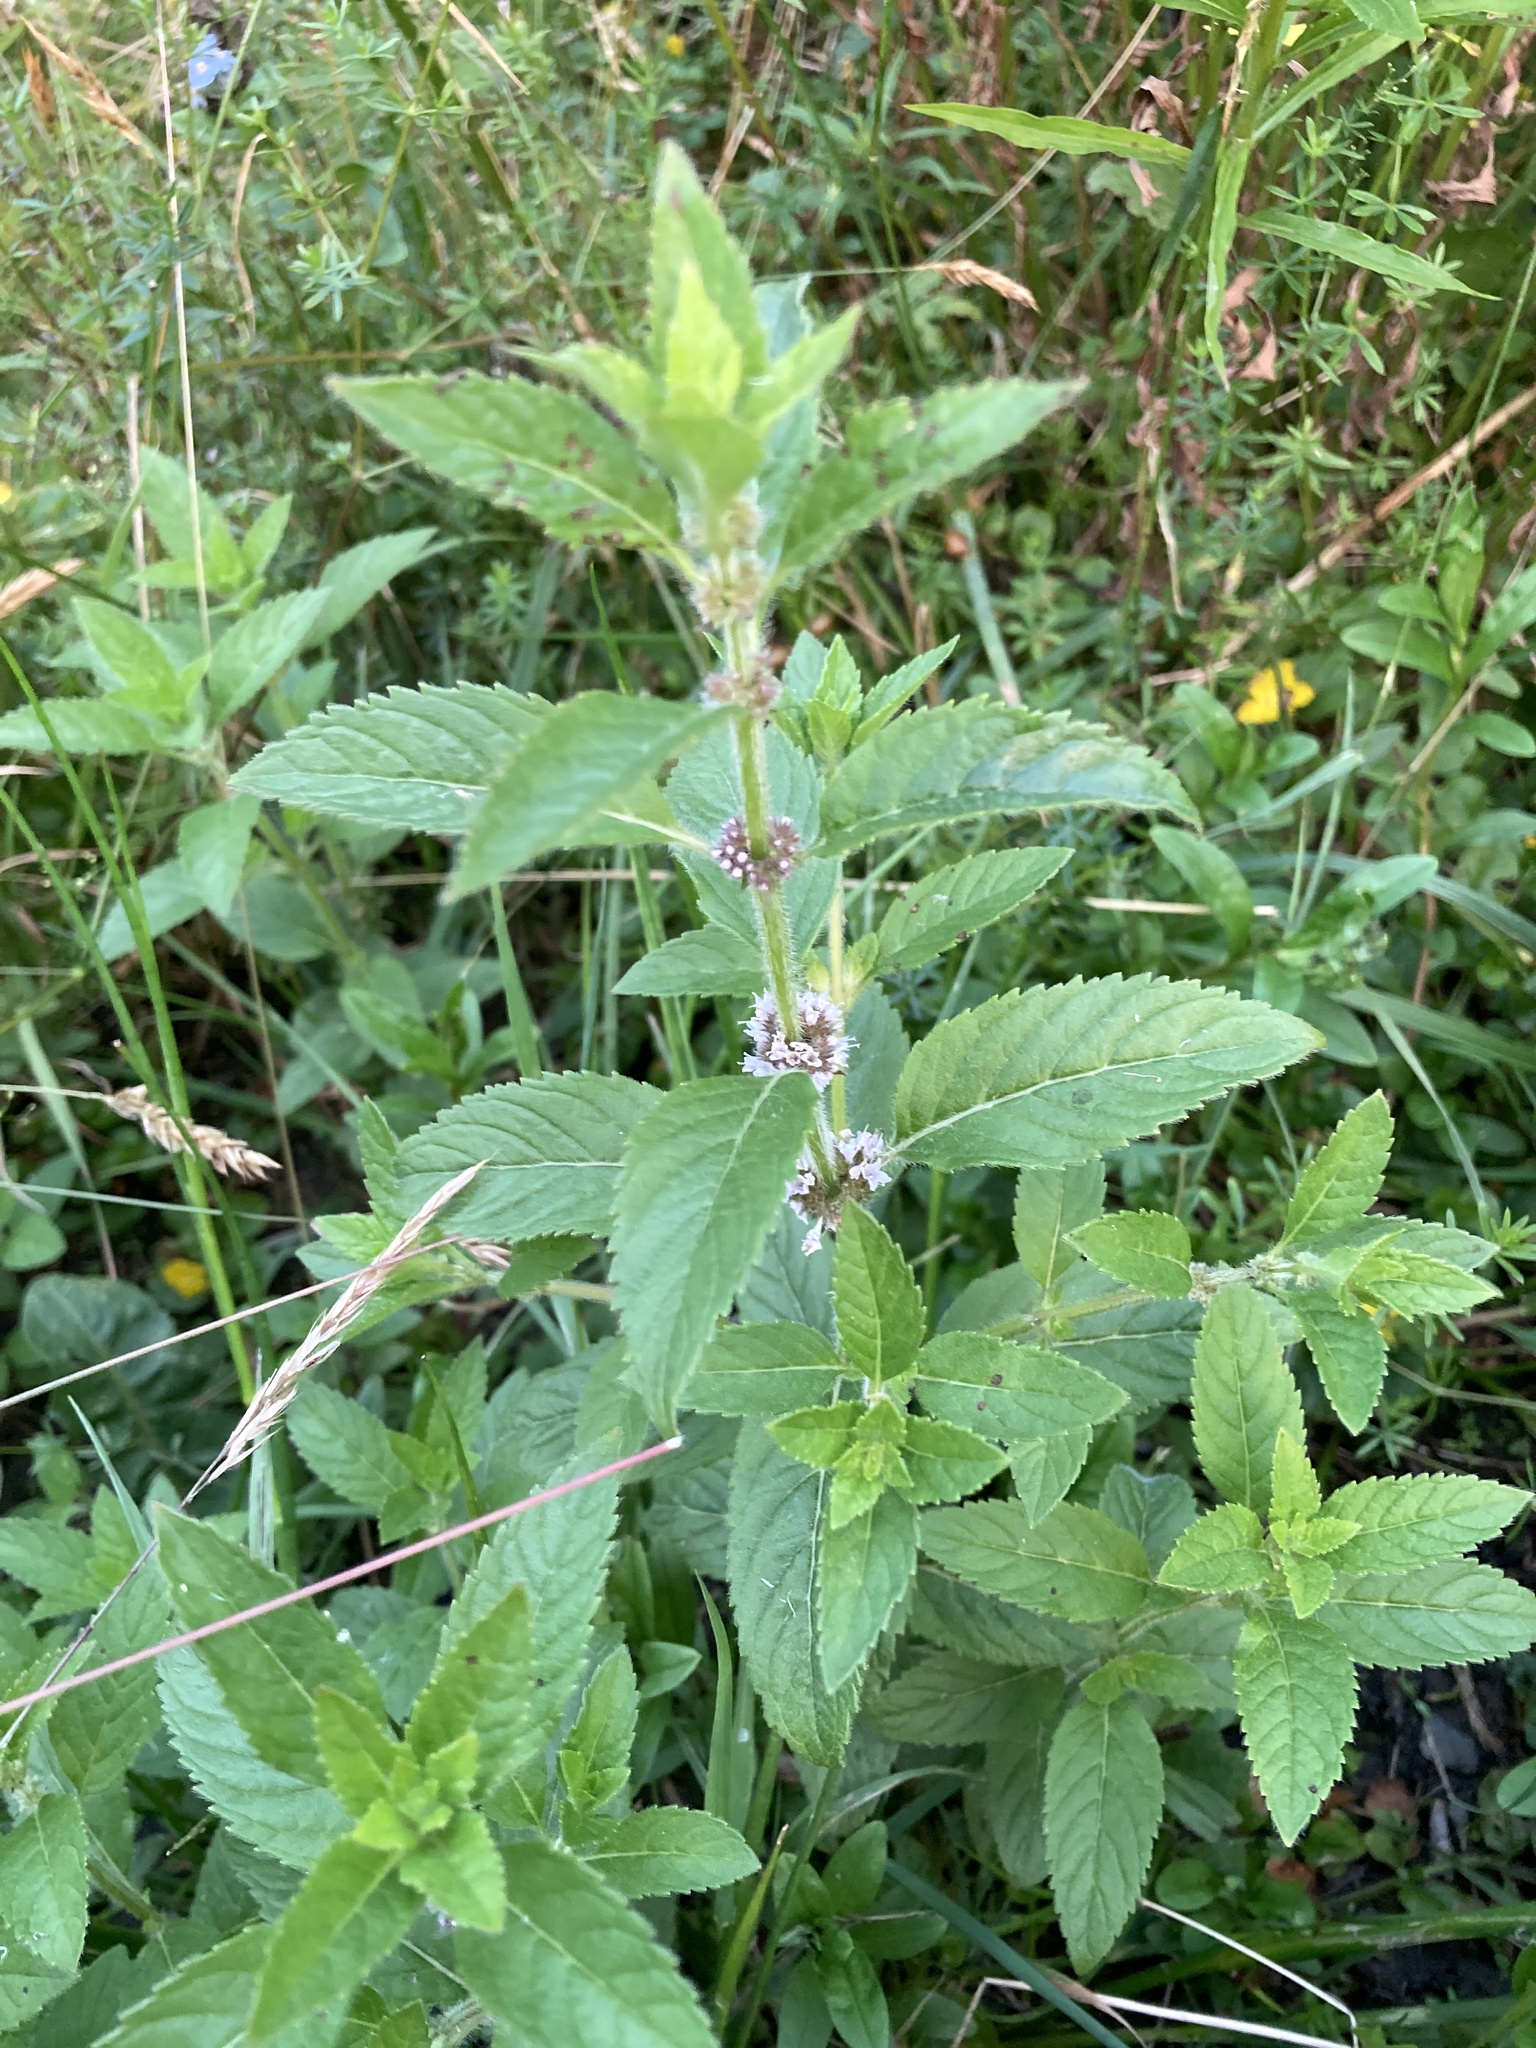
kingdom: Plantae
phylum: Tracheophyta
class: Magnoliopsida
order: Lamiales
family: Lamiaceae
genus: Mentha
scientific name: Mentha canadensis
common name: American corn mint
